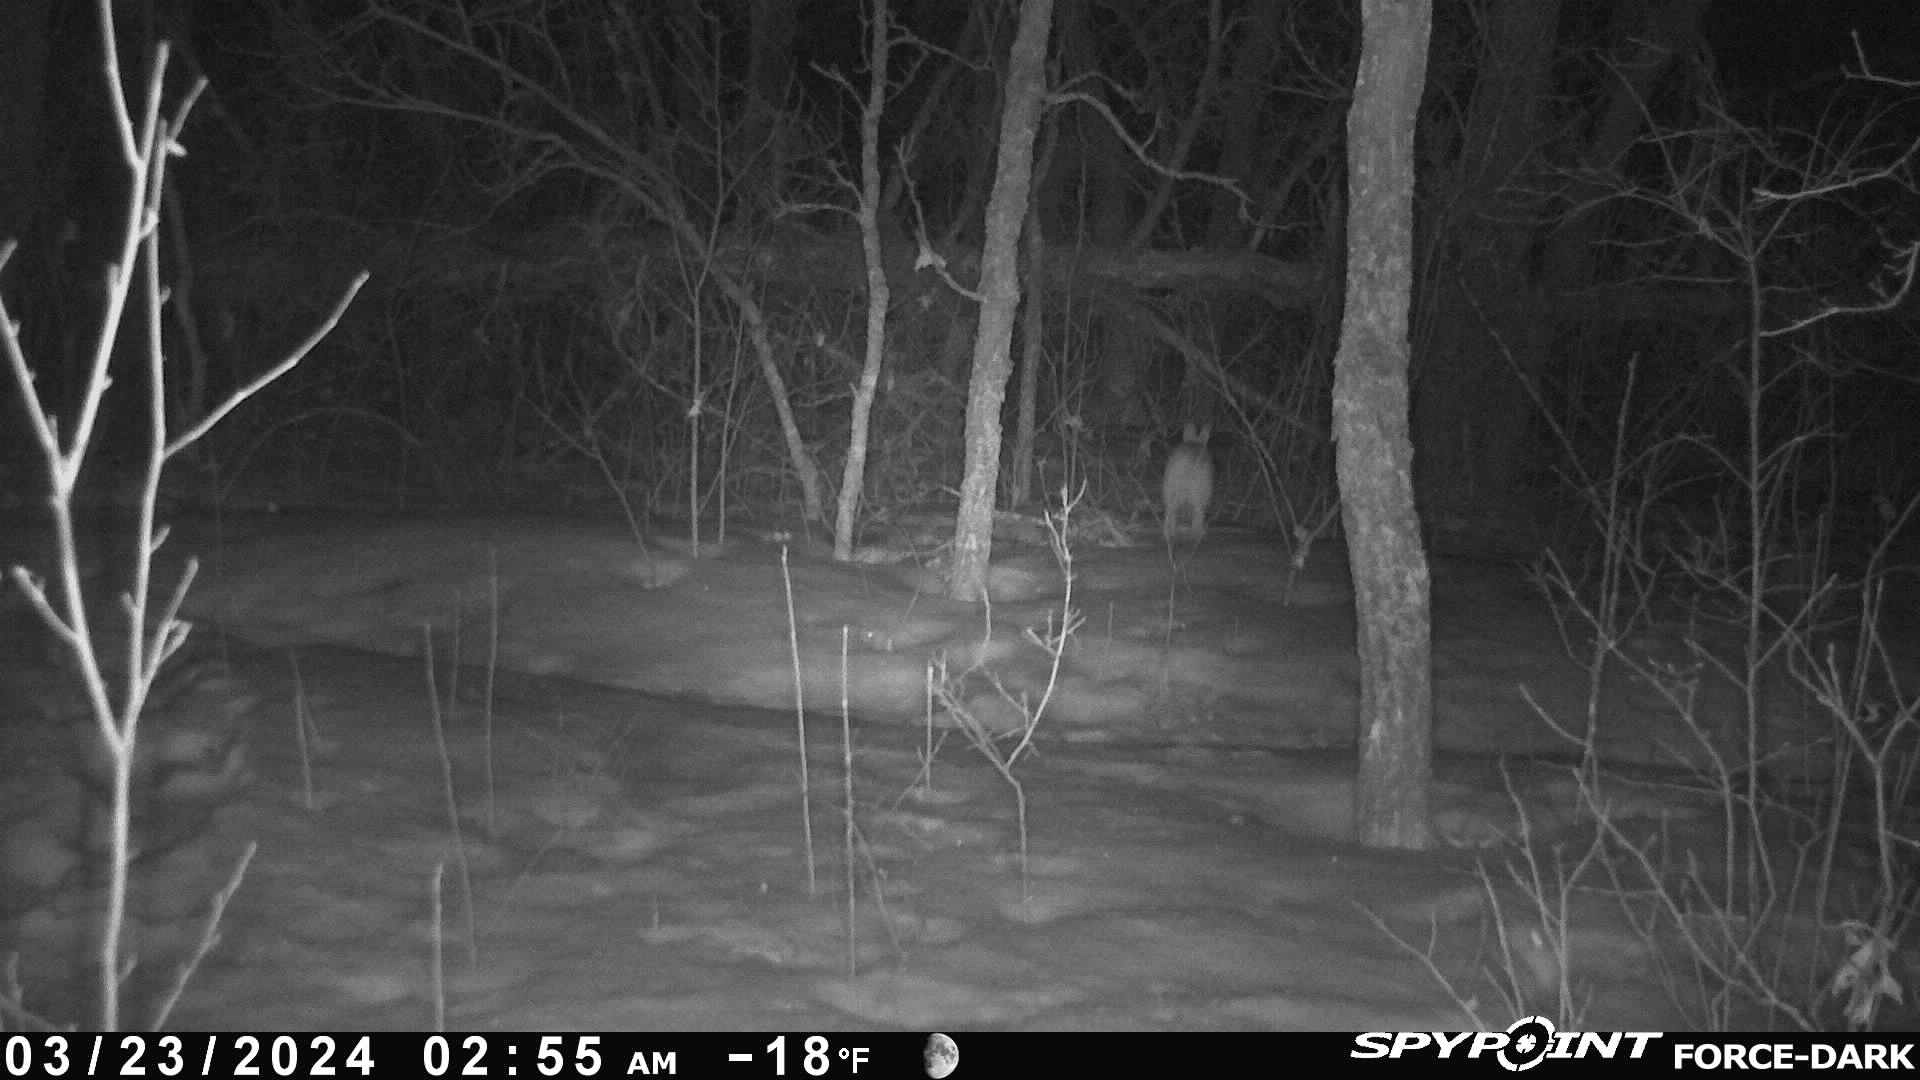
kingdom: Animalia
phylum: Chordata
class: Mammalia
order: Lagomorpha
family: Leporidae
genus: Lepus
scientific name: Lepus americanus
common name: Snowshoe hare
